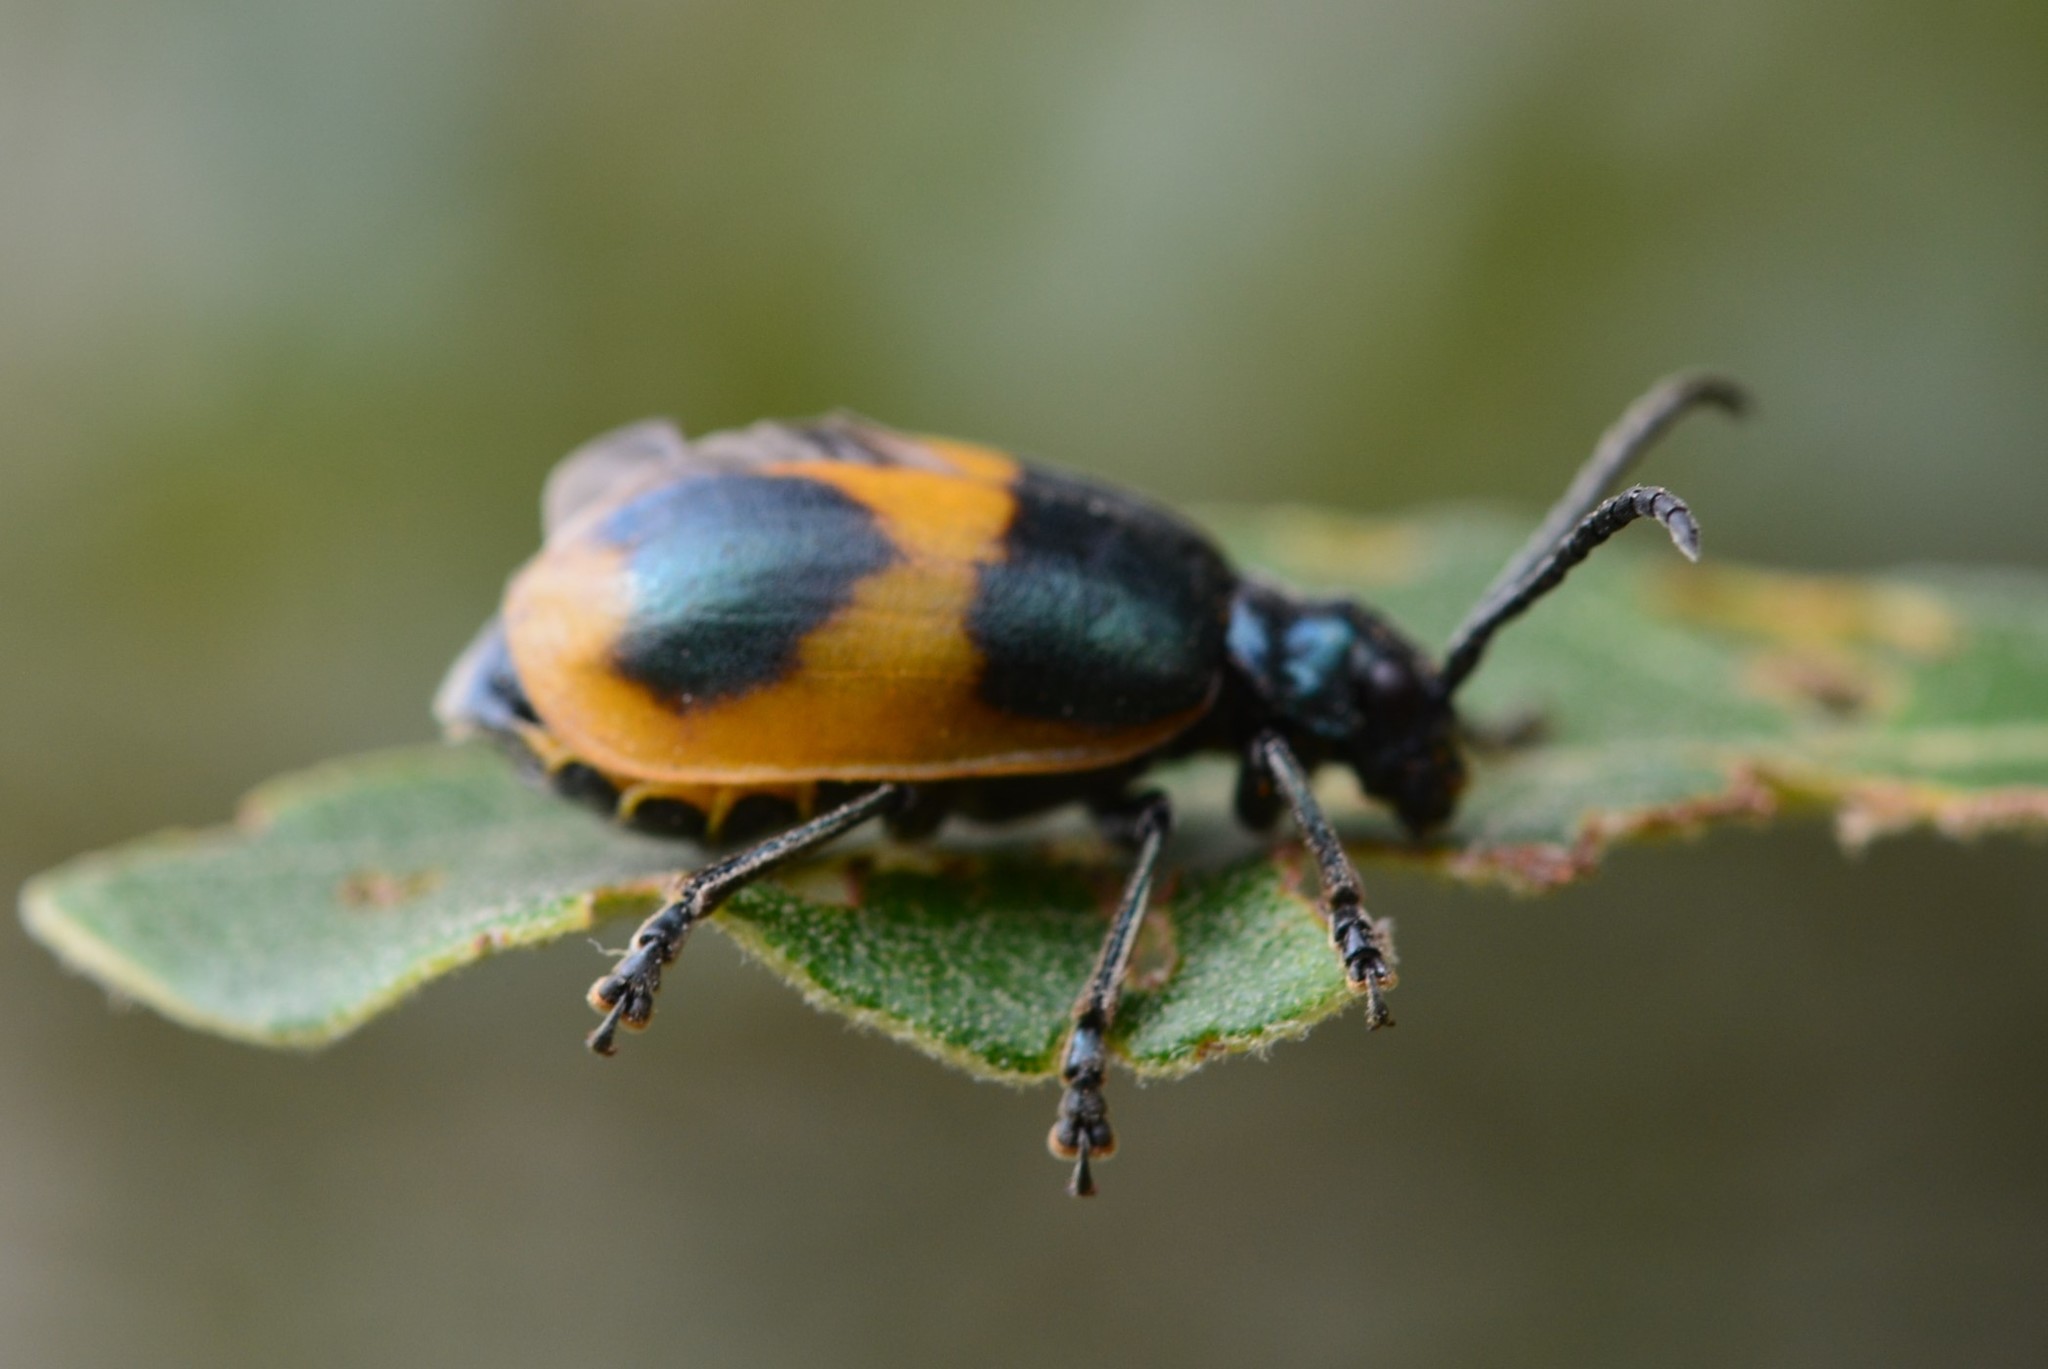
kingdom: Animalia
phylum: Arthropoda
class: Insecta
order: Coleoptera
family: Chrysomelidae
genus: Monocesta
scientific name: Monocesta
